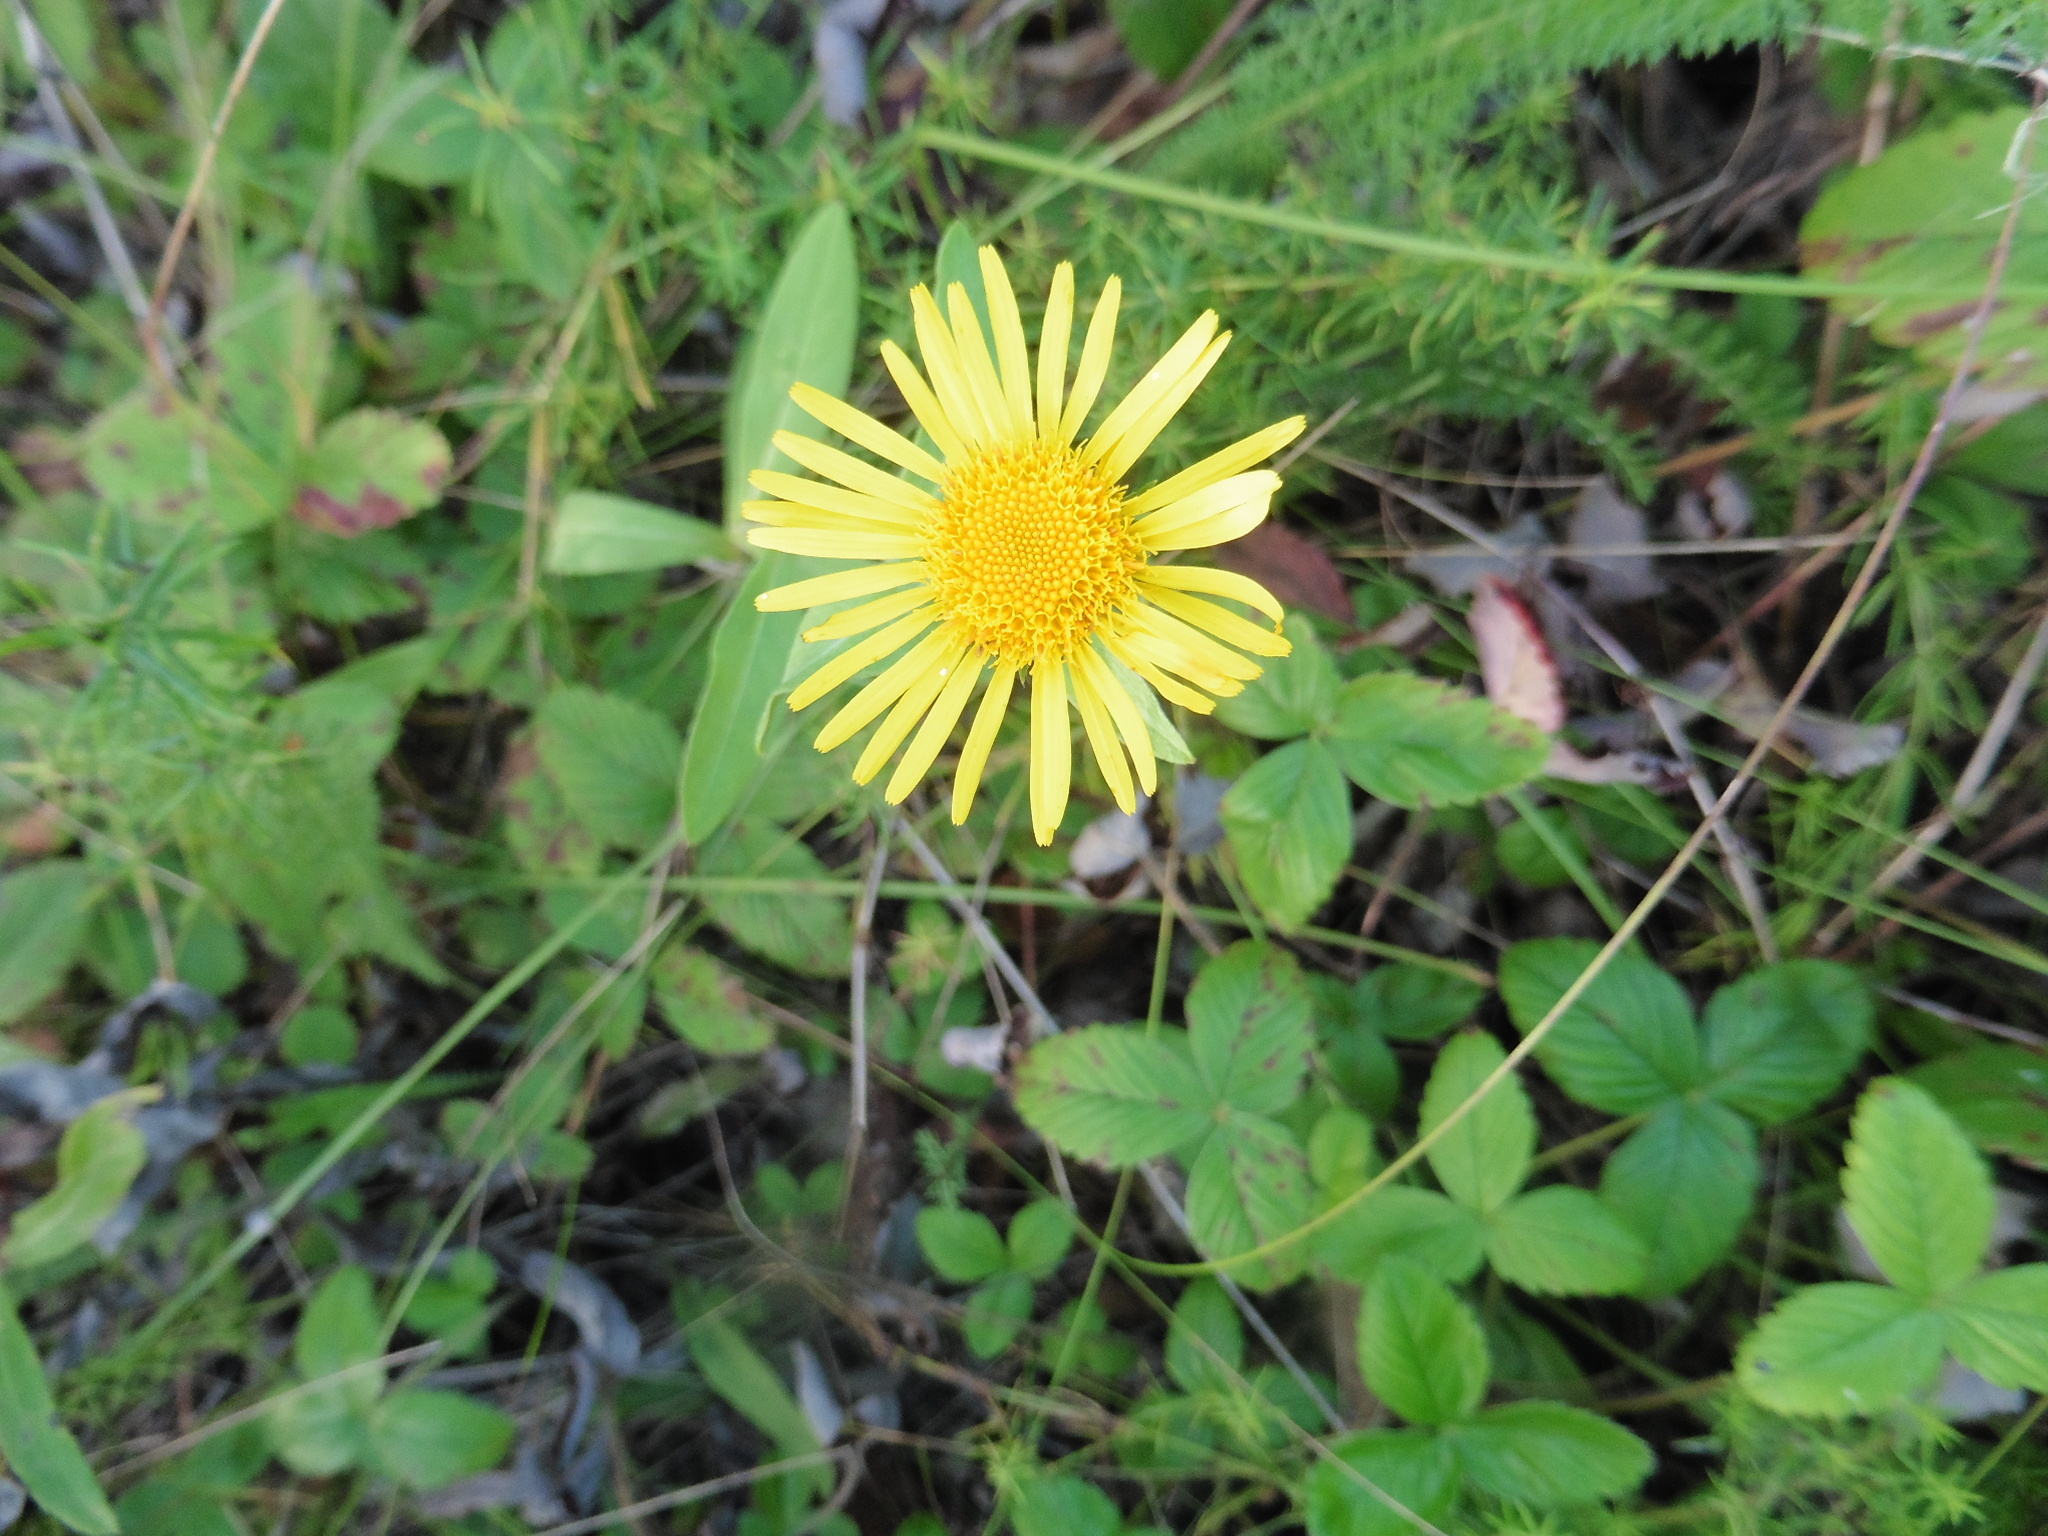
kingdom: Plantae
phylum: Tracheophyta
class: Magnoliopsida
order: Asterales
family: Asteraceae
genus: Pentanema
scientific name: Pentanema britannicum
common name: British elecampane
